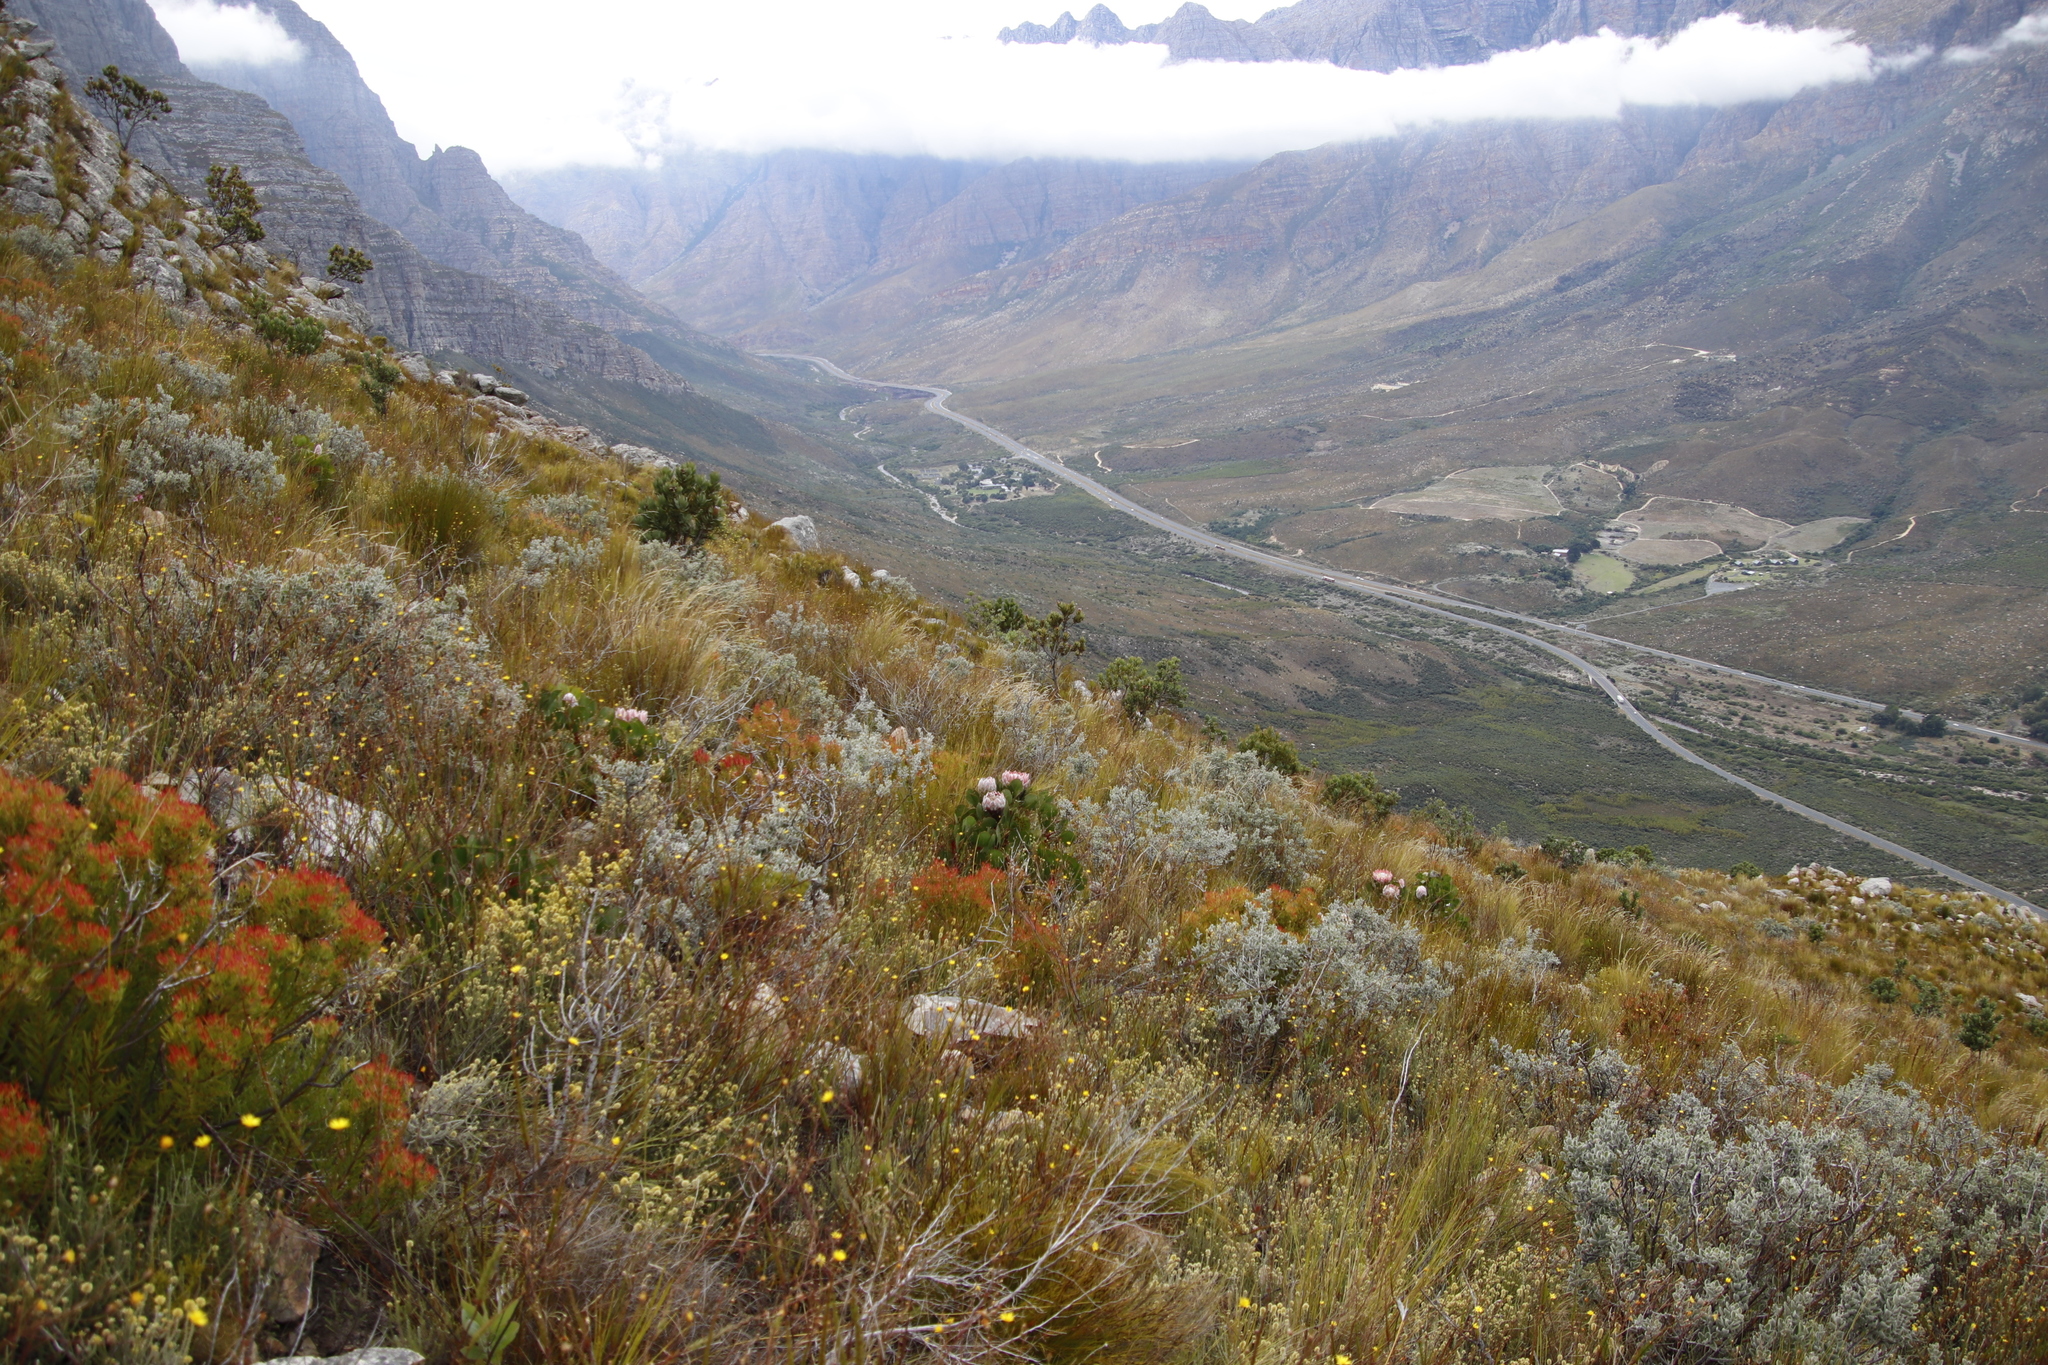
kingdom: Plantae
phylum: Tracheophyta
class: Magnoliopsida
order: Proteales
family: Proteaceae
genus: Protea
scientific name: Protea cynaroides
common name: King protea
